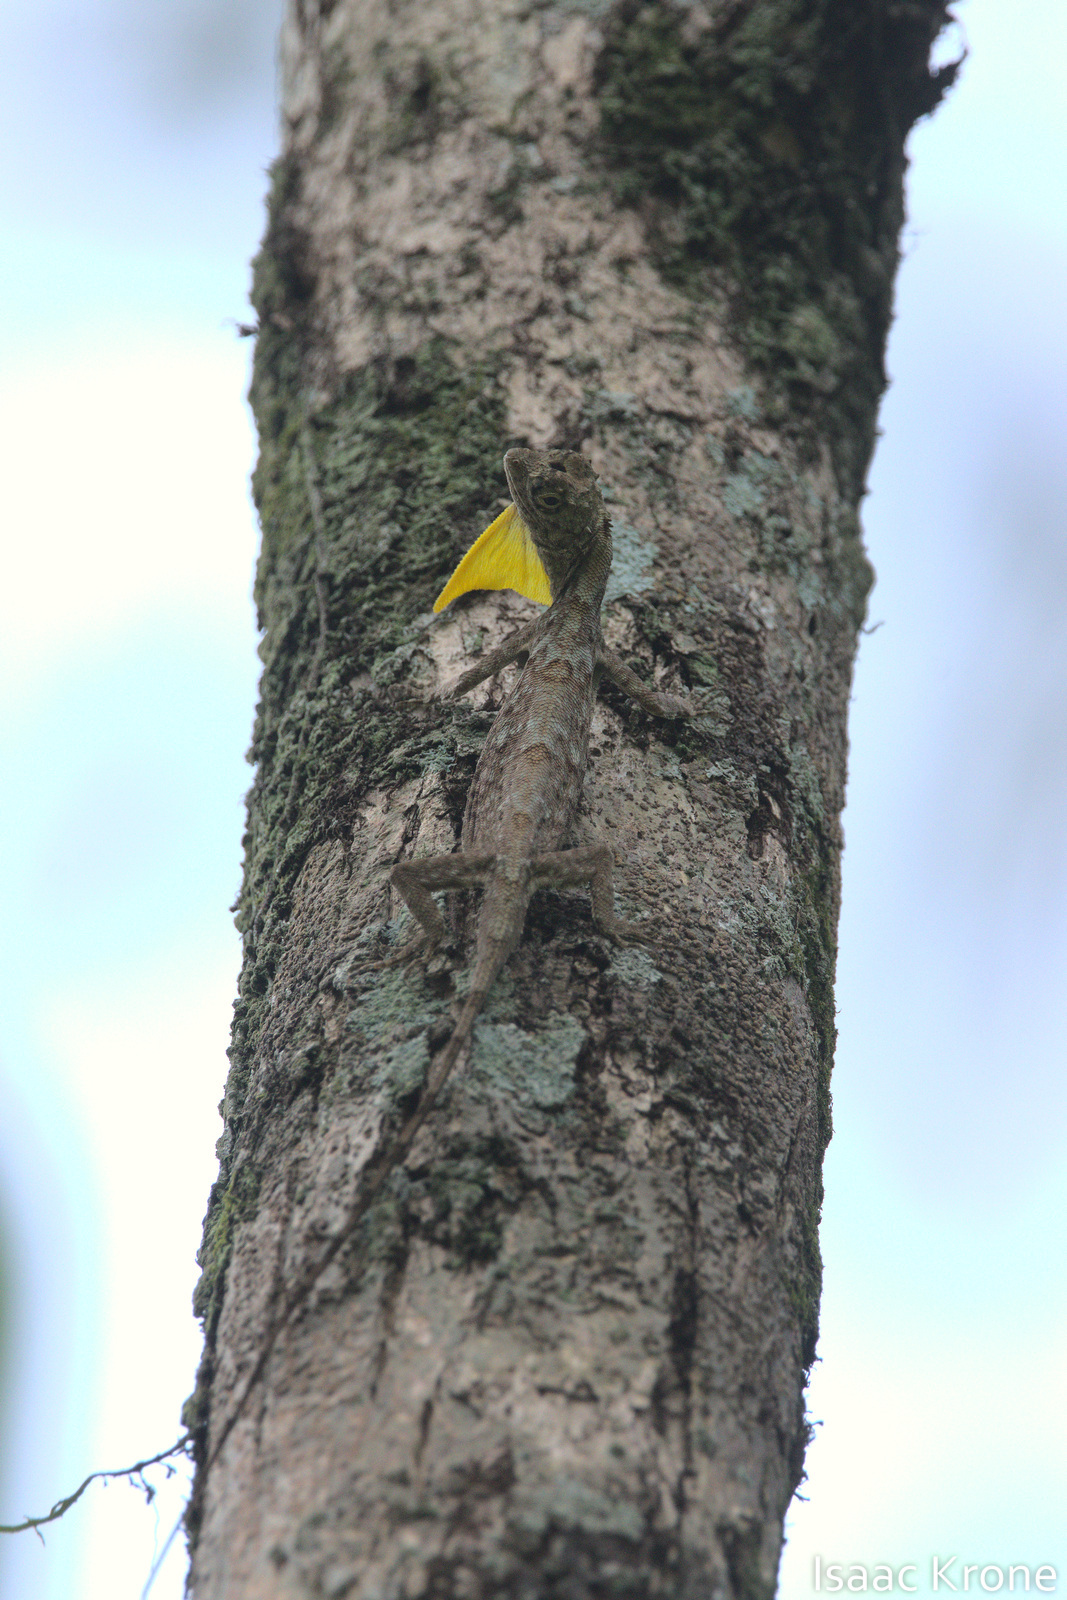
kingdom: Animalia
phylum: Chordata
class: Squamata
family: Agamidae
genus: Draco
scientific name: Draco volans
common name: Common flying dragon
